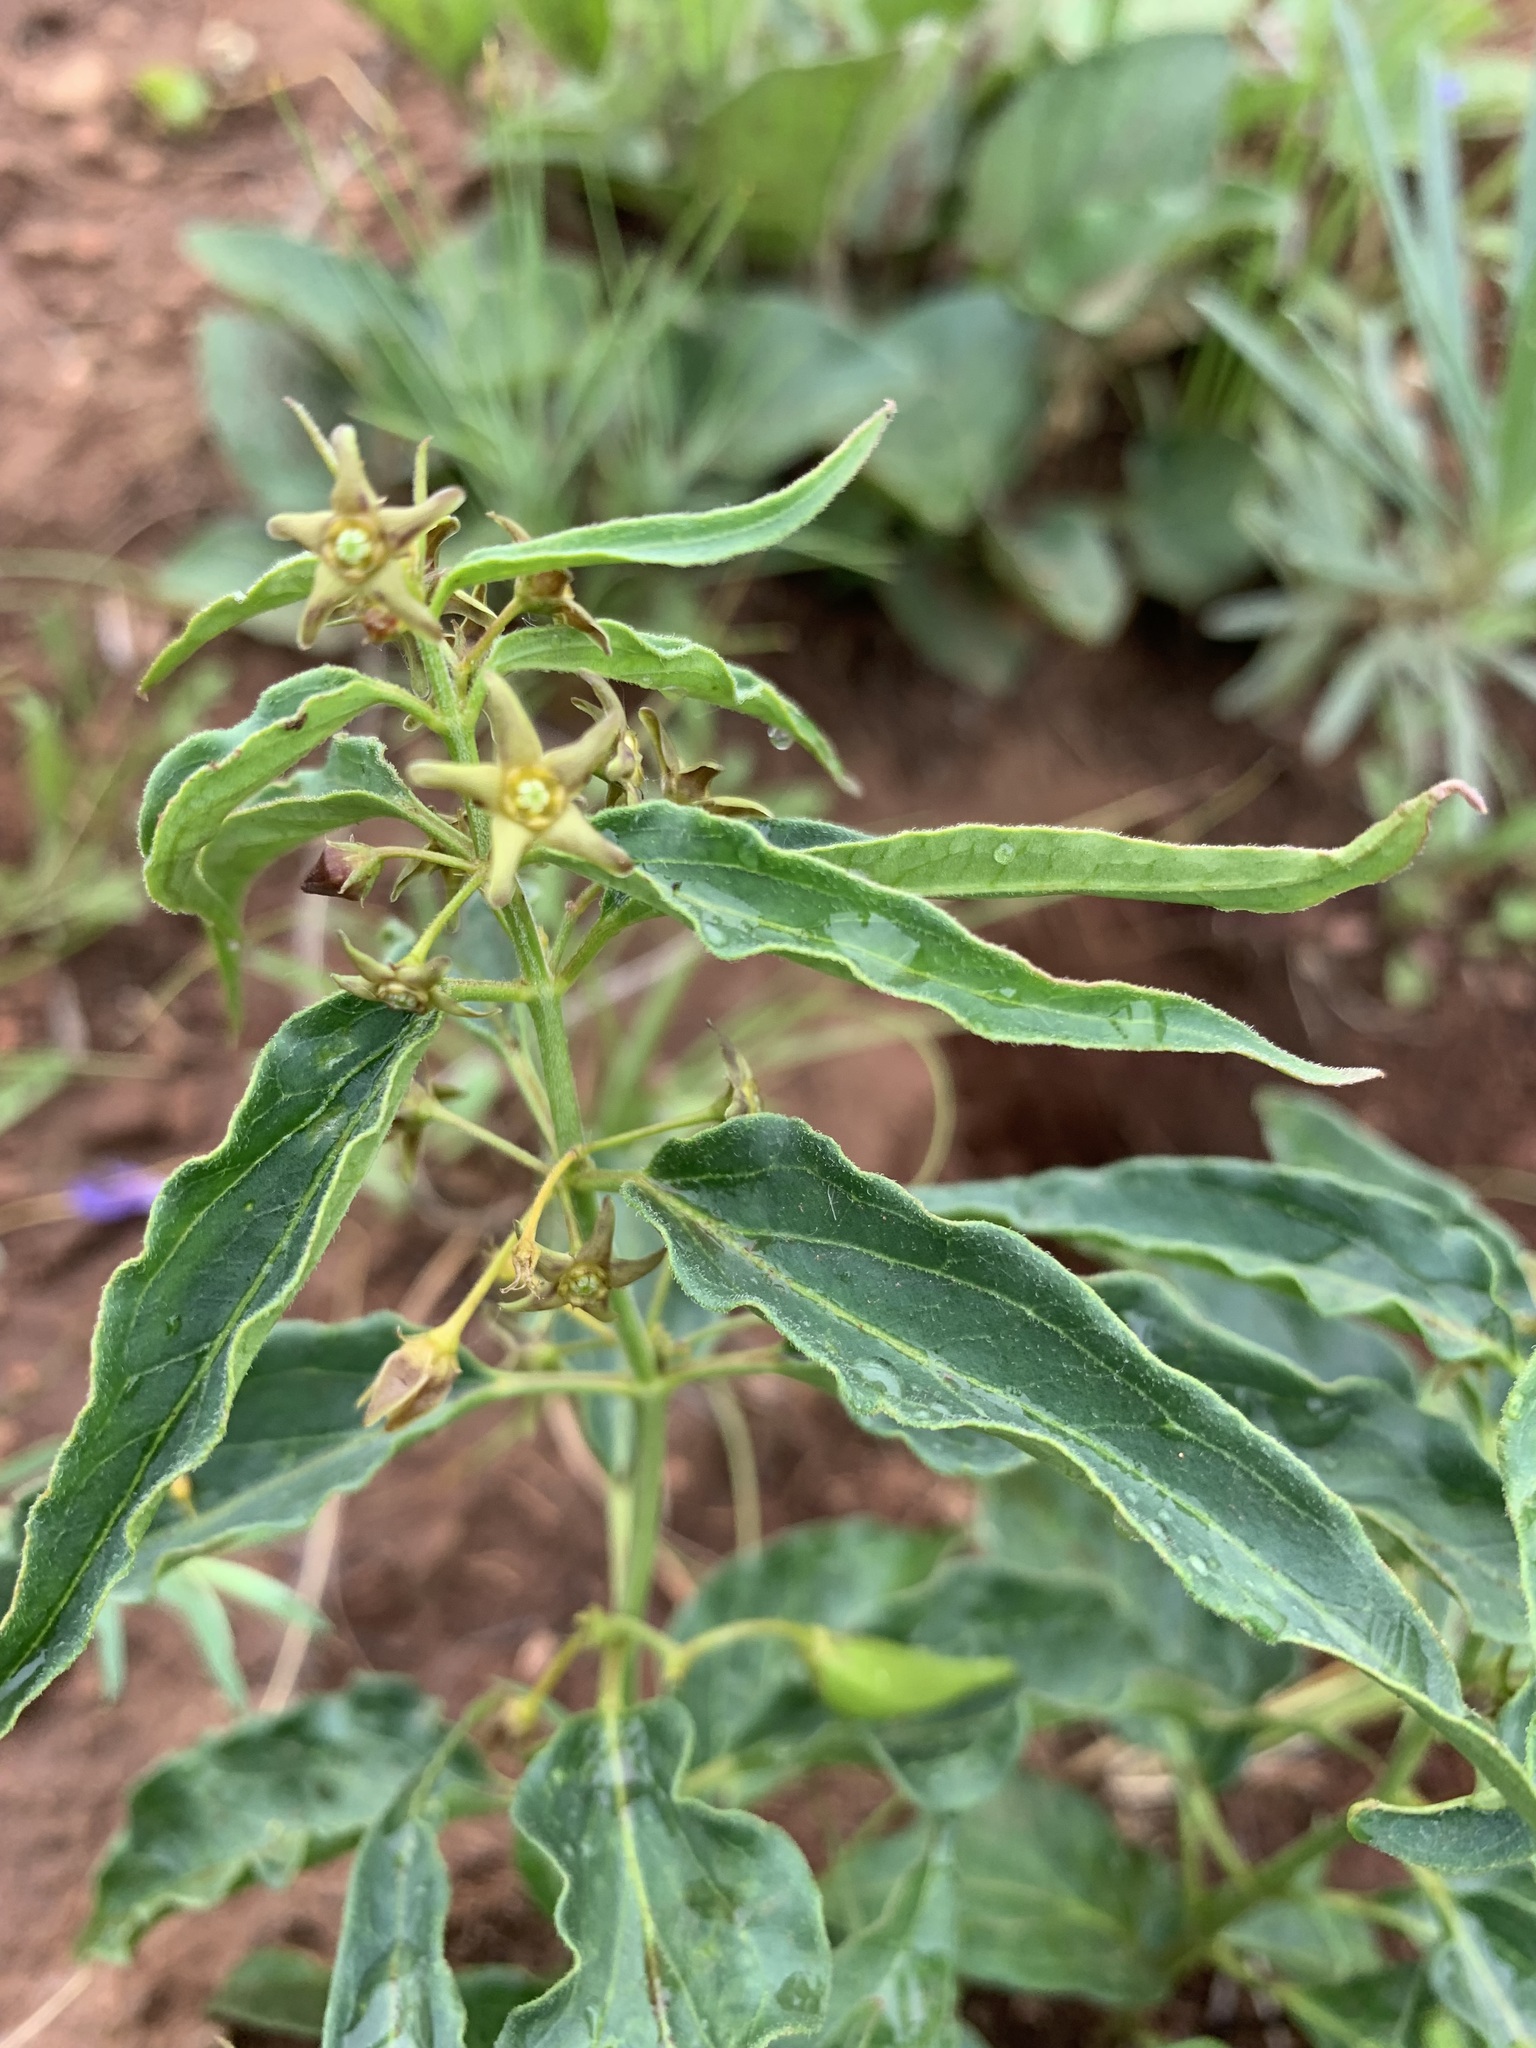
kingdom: Plantae
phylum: Tracheophyta
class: Magnoliopsida
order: Gentianales
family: Apocynaceae
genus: Vincetoxicum
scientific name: Vincetoxicum fuscatum
